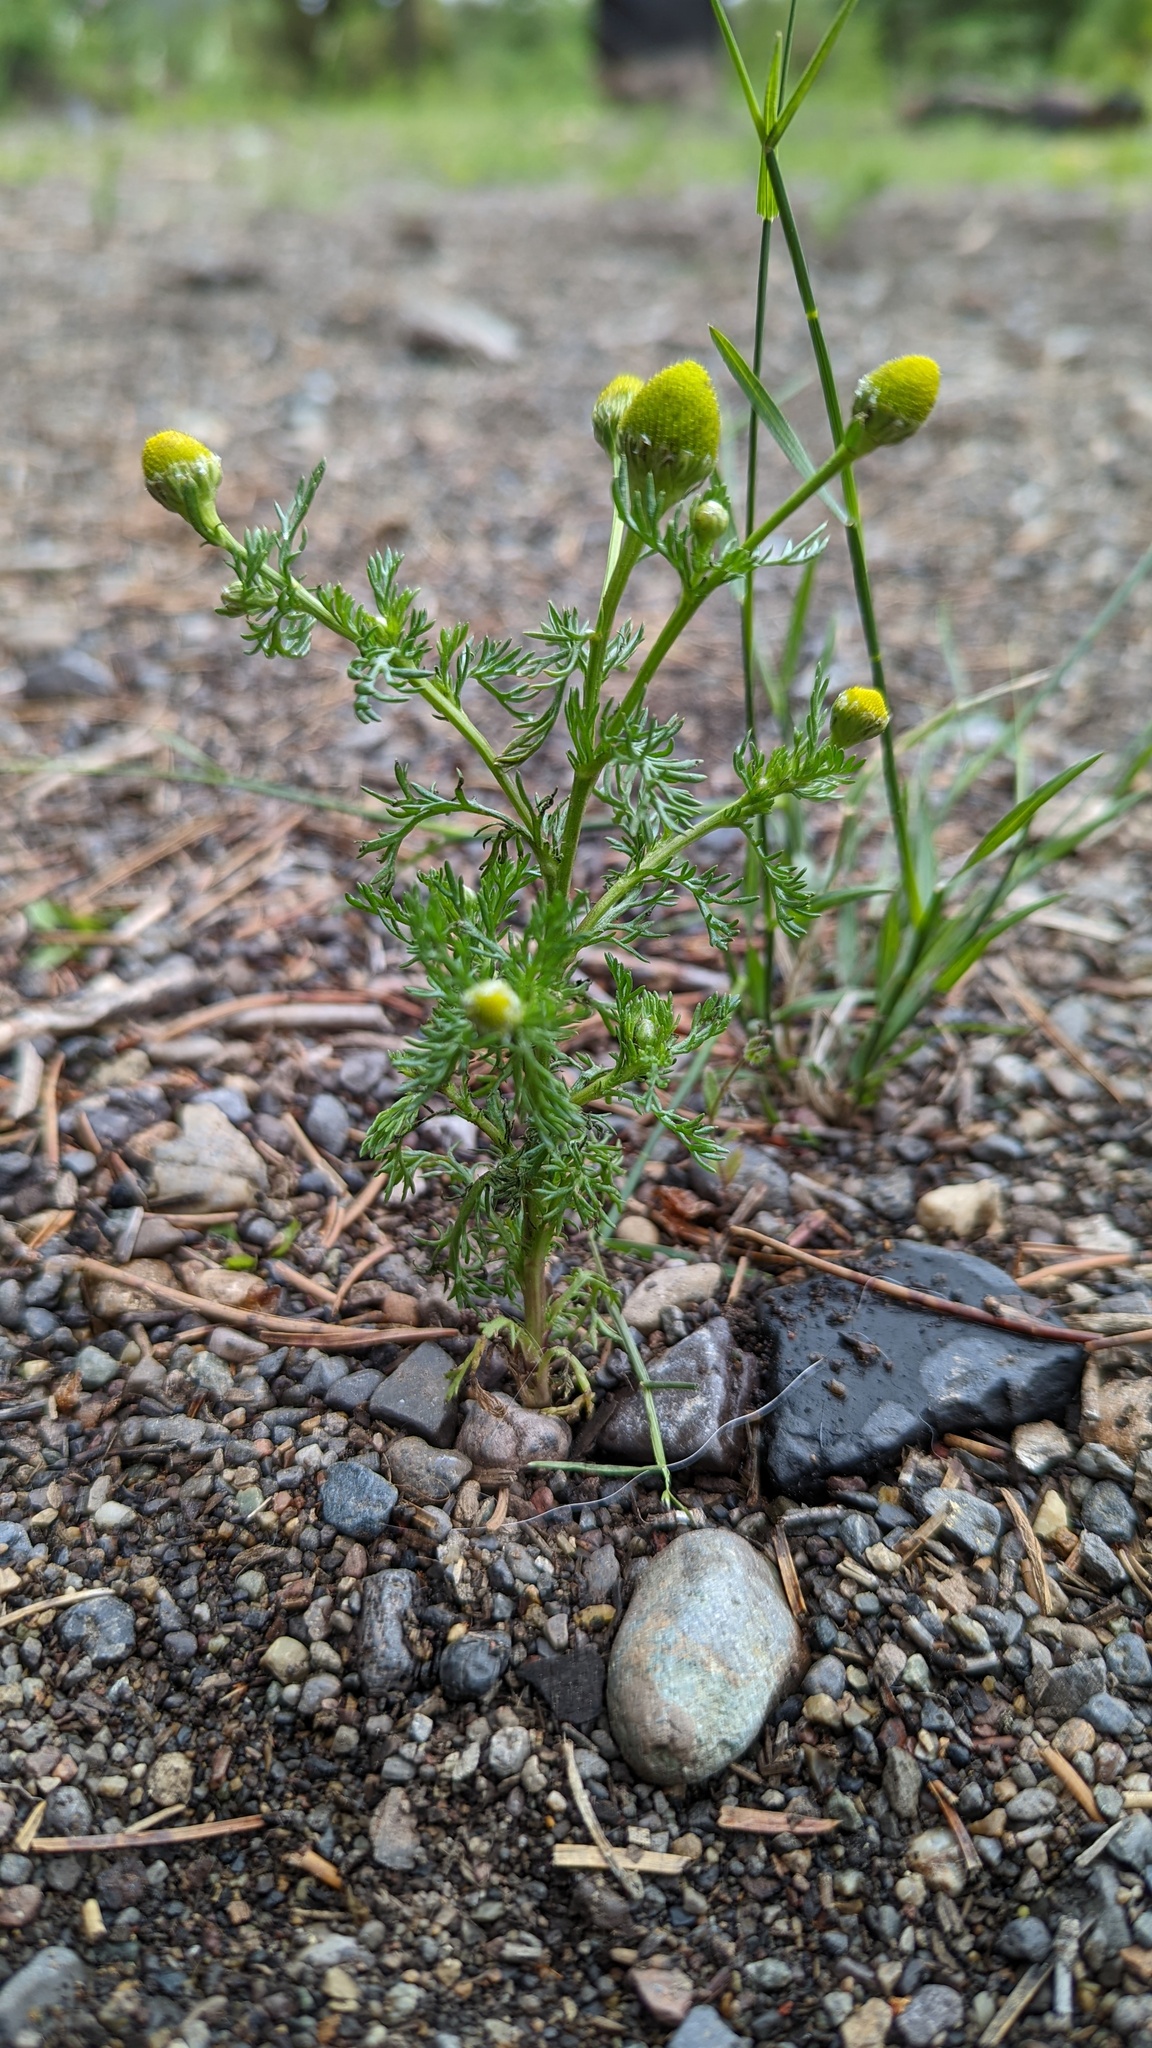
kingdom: Plantae
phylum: Tracheophyta
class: Magnoliopsida
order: Asterales
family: Asteraceae
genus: Matricaria
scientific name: Matricaria discoidea
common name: Disc mayweed
